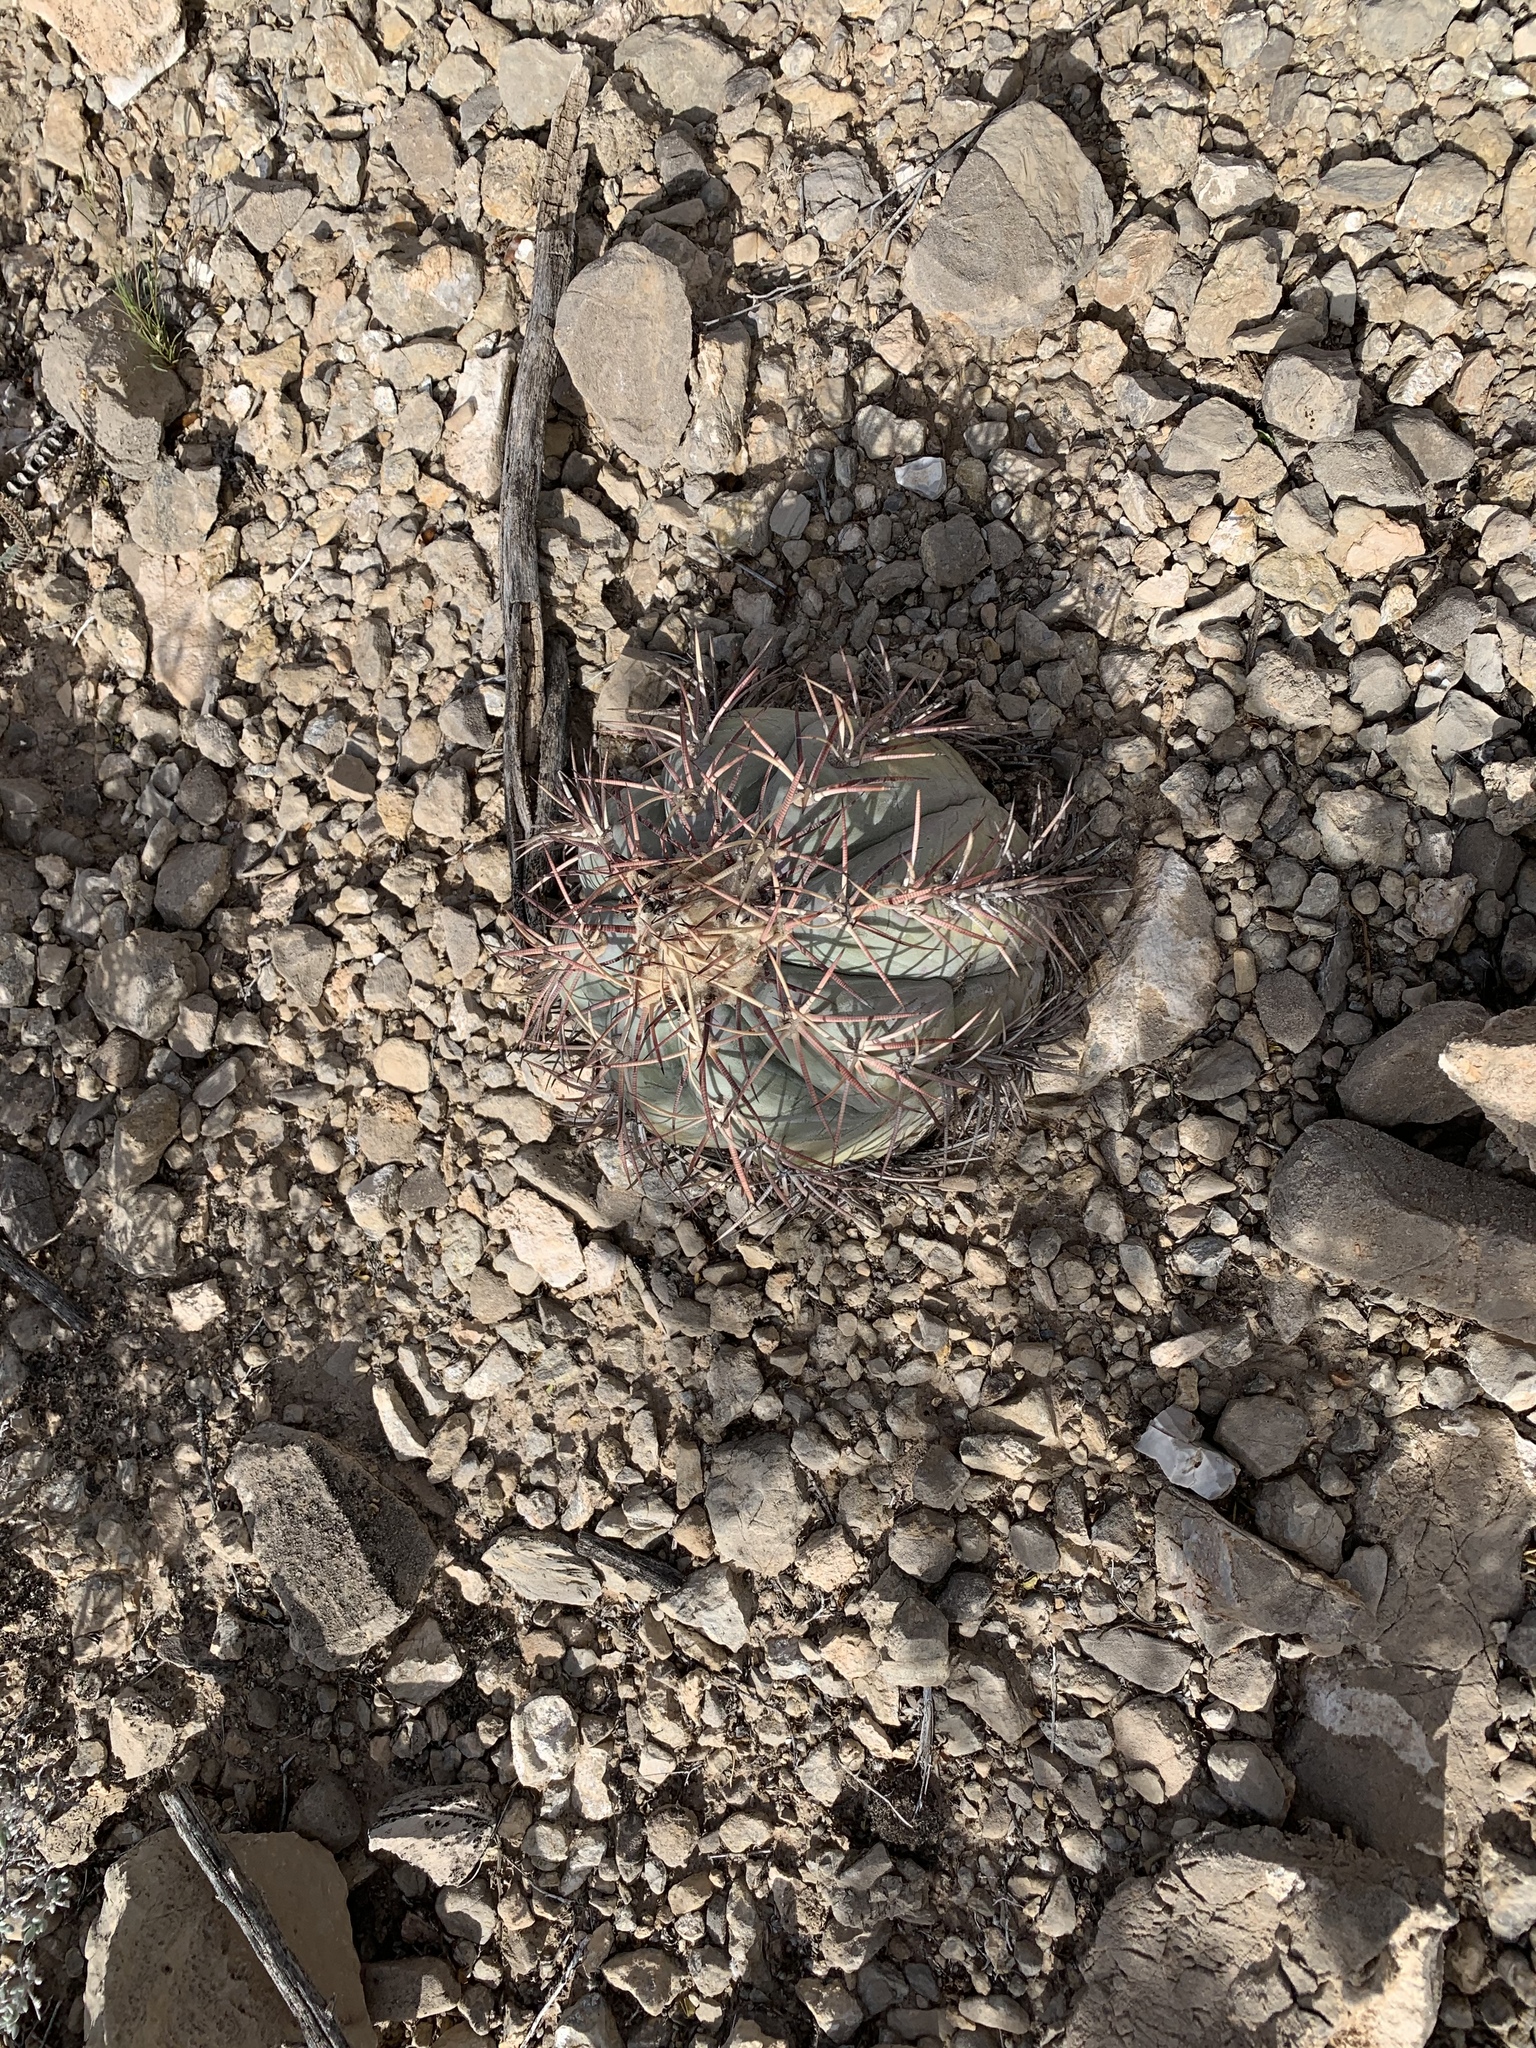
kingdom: Plantae
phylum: Tracheophyta
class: Magnoliopsida
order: Caryophyllales
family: Cactaceae
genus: Echinocactus
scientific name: Echinocactus horizonthalonius
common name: Devilshead
